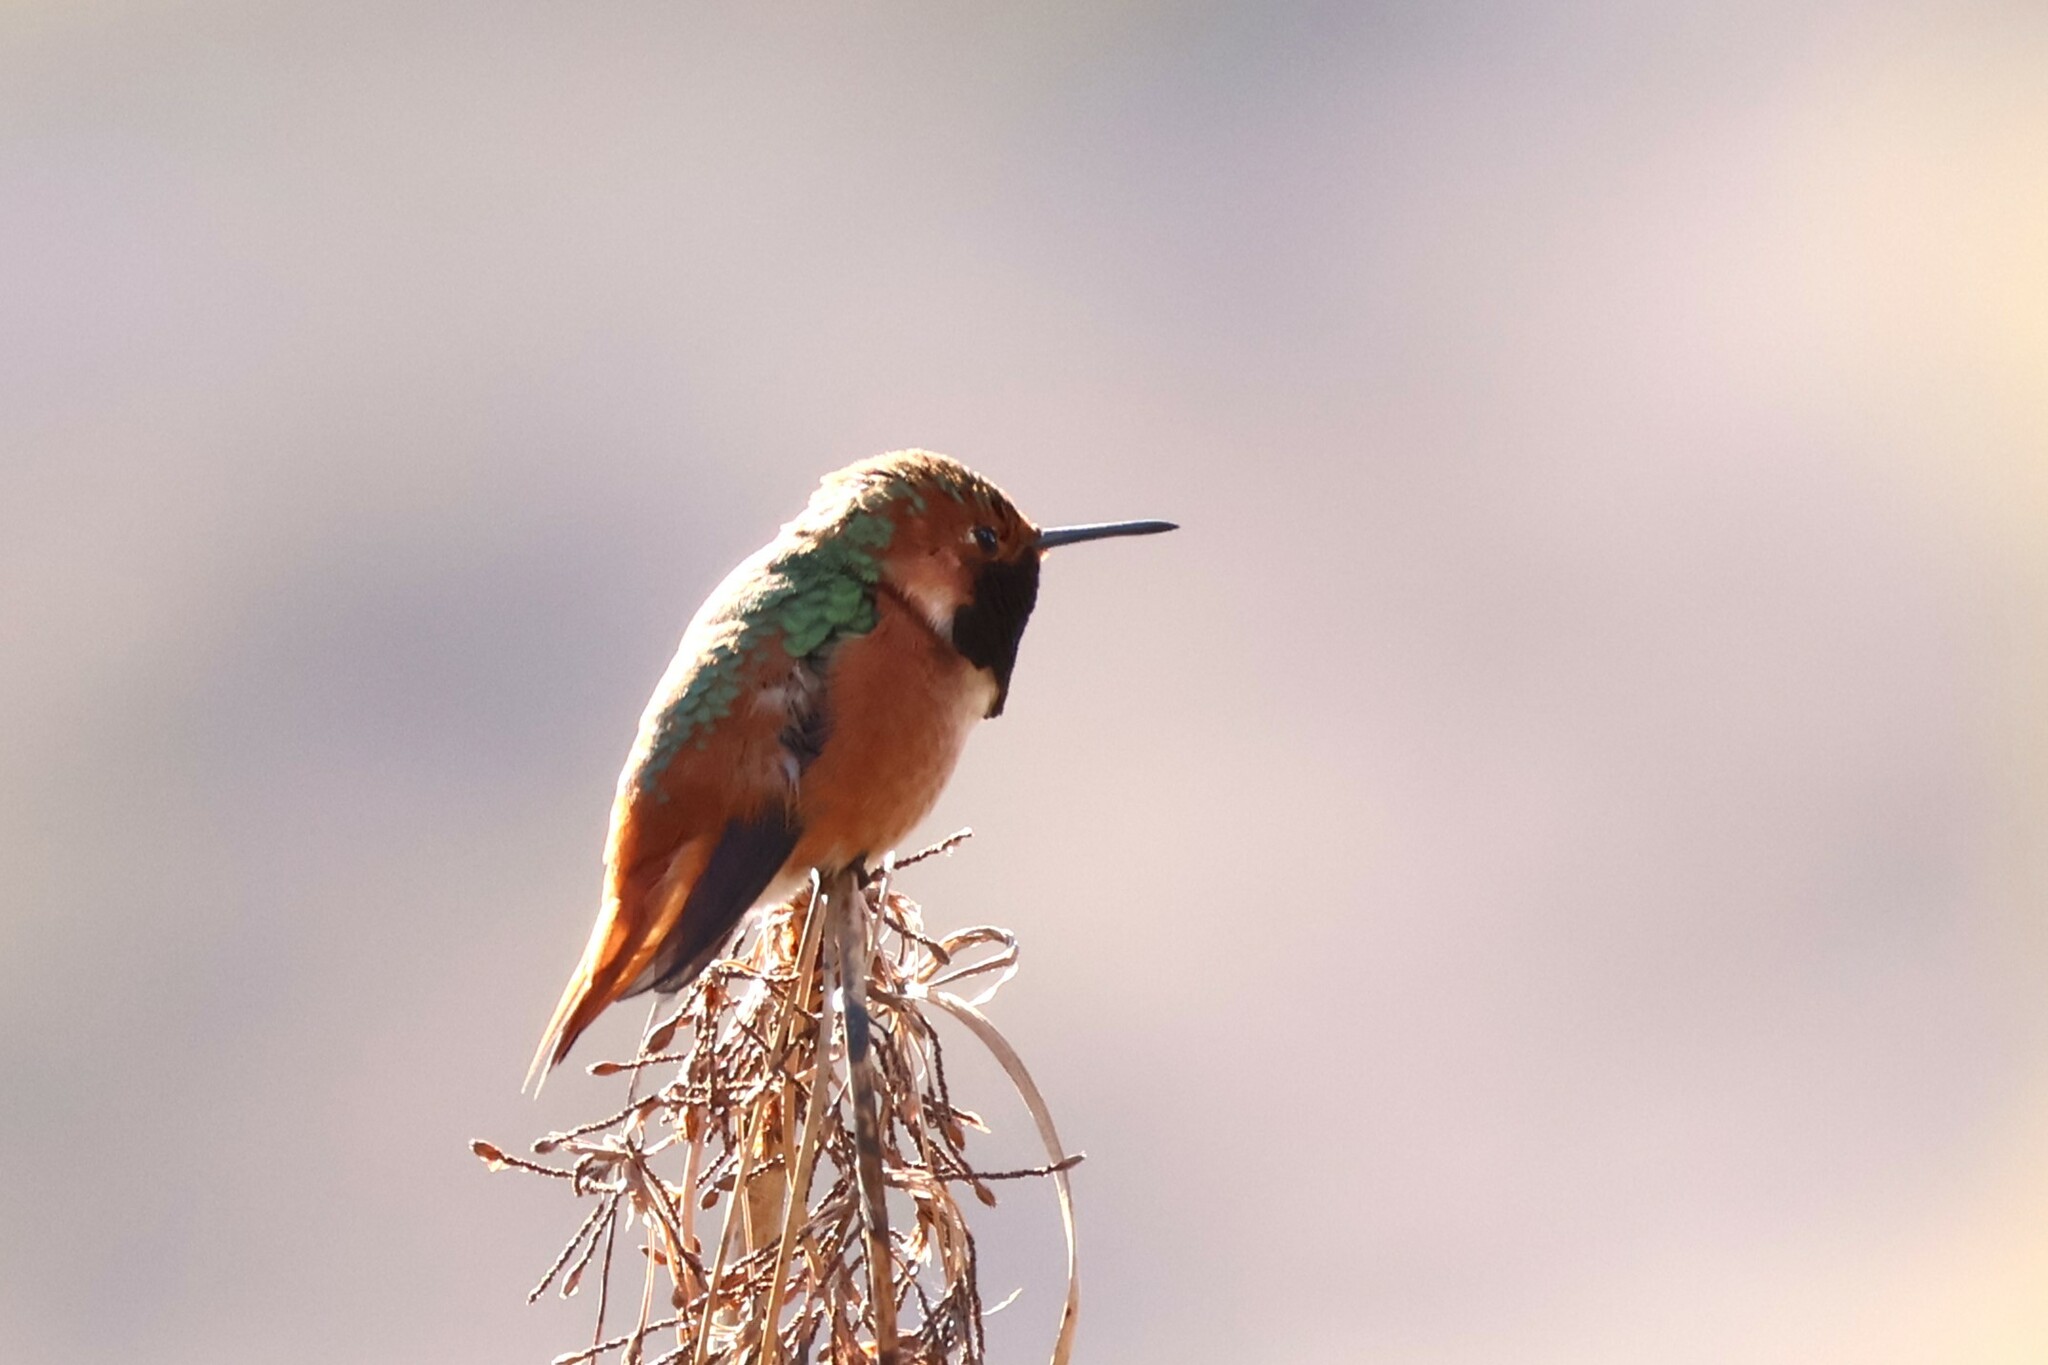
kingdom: Animalia
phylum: Chordata
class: Aves
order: Apodiformes
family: Trochilidae
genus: Selasphorus
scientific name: Selasphorus sasin
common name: Allen's hummingbird
